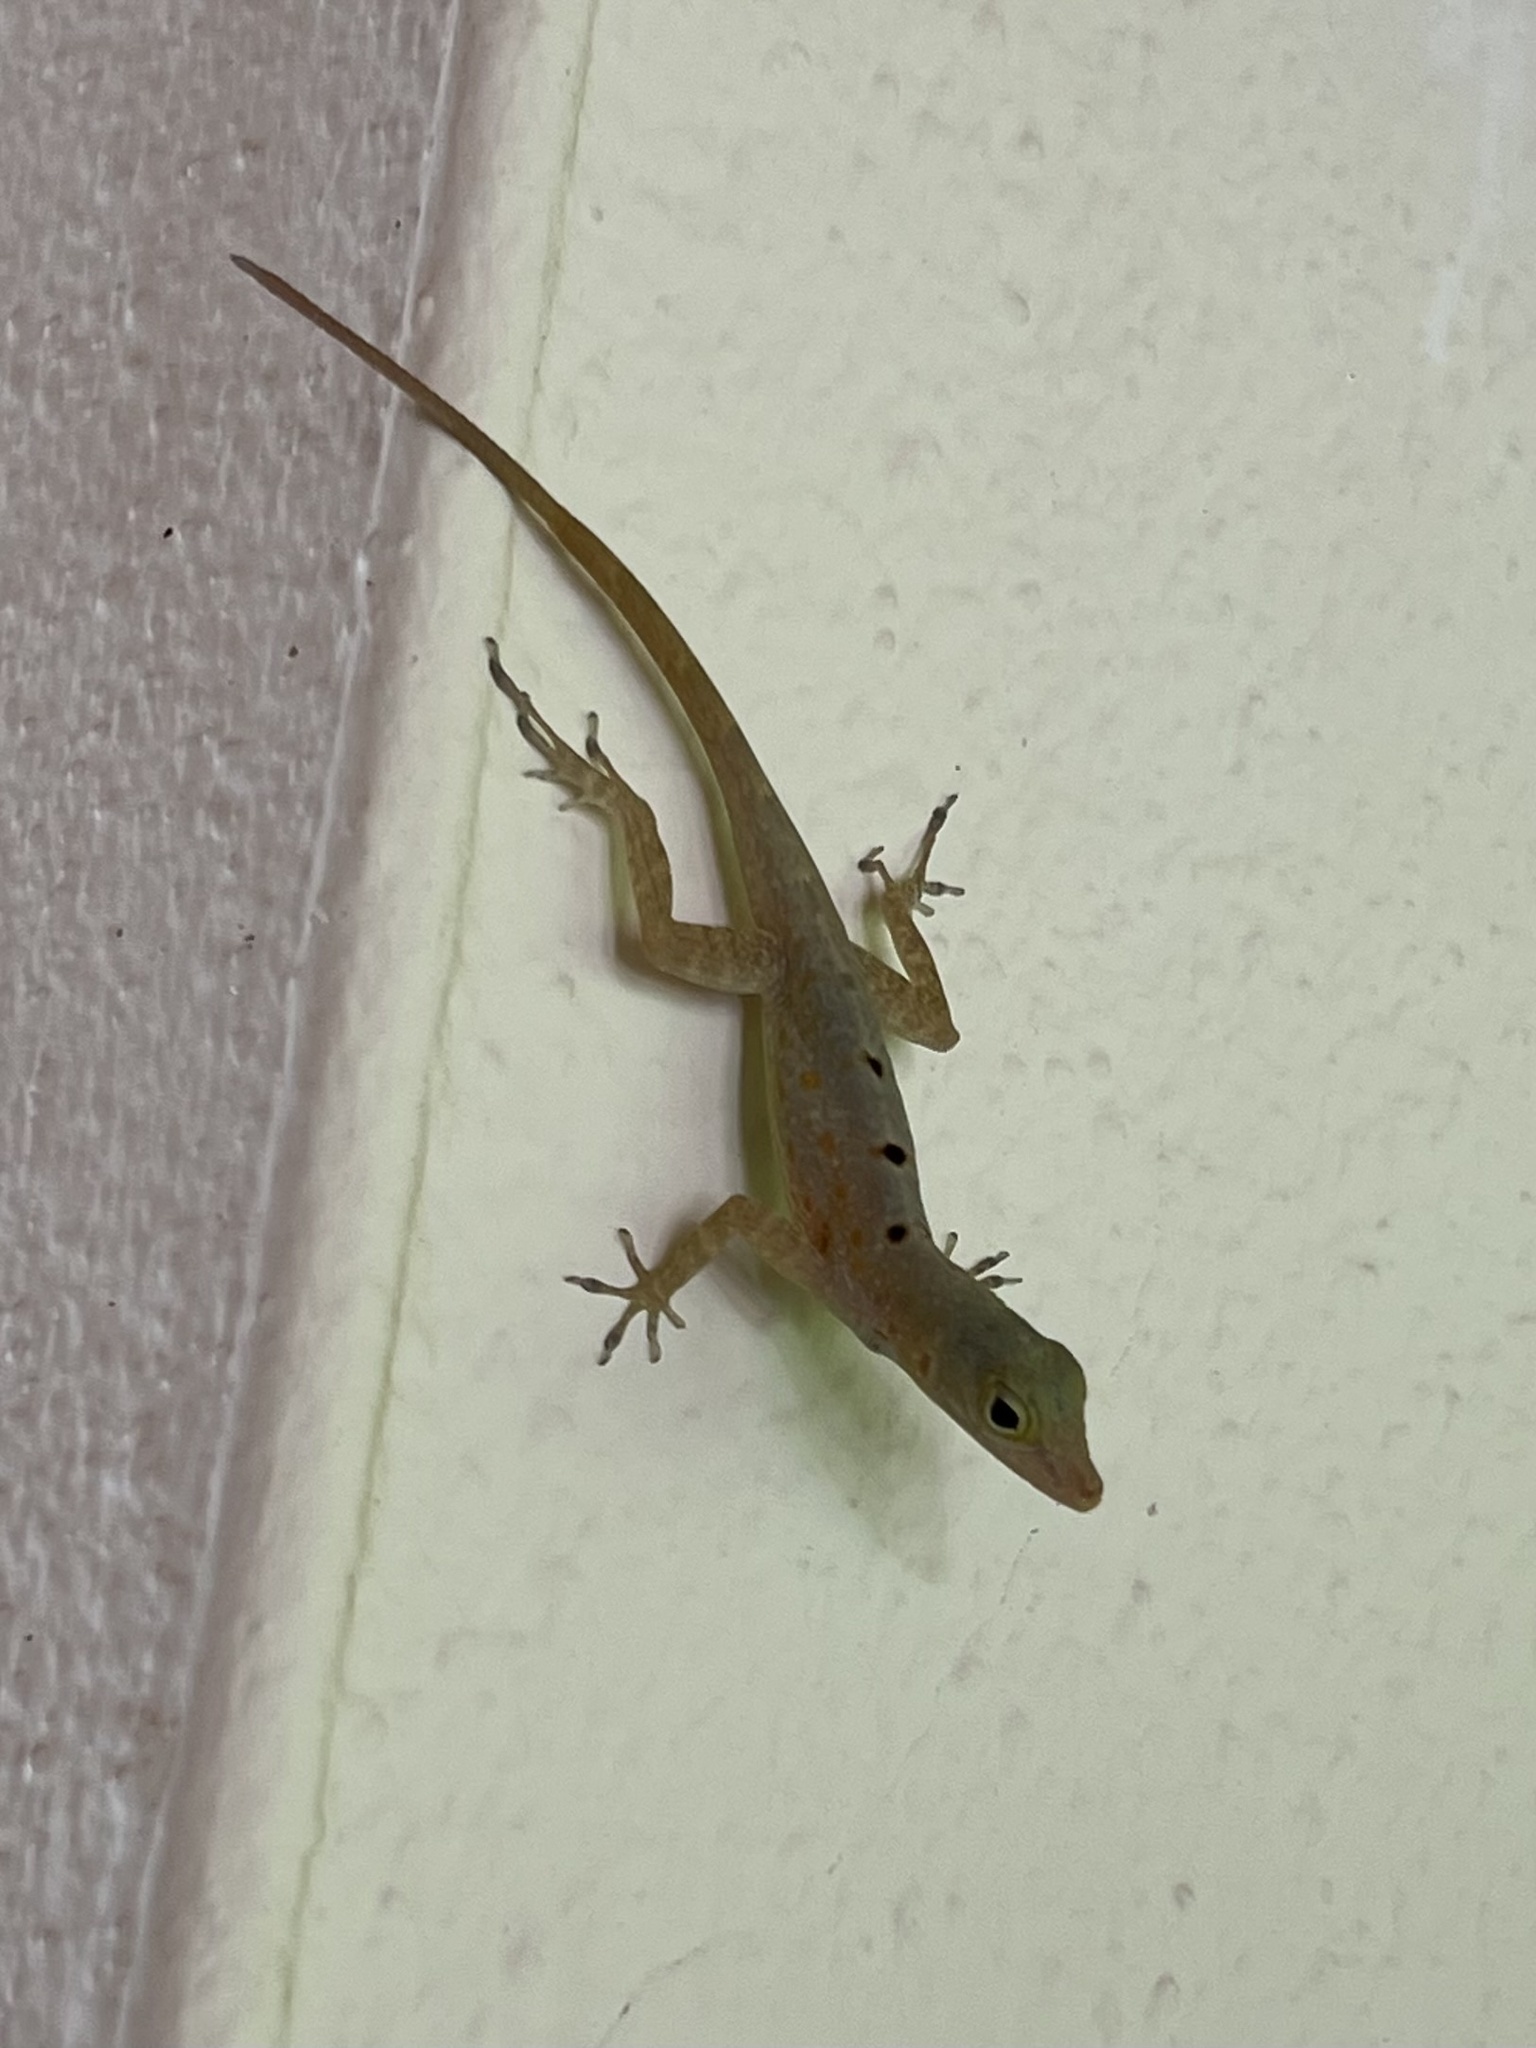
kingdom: Animalia
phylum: Chordata
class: Squamata
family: Dactyloidae
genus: Anolis
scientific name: Anolis stratulus
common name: Banded anole
